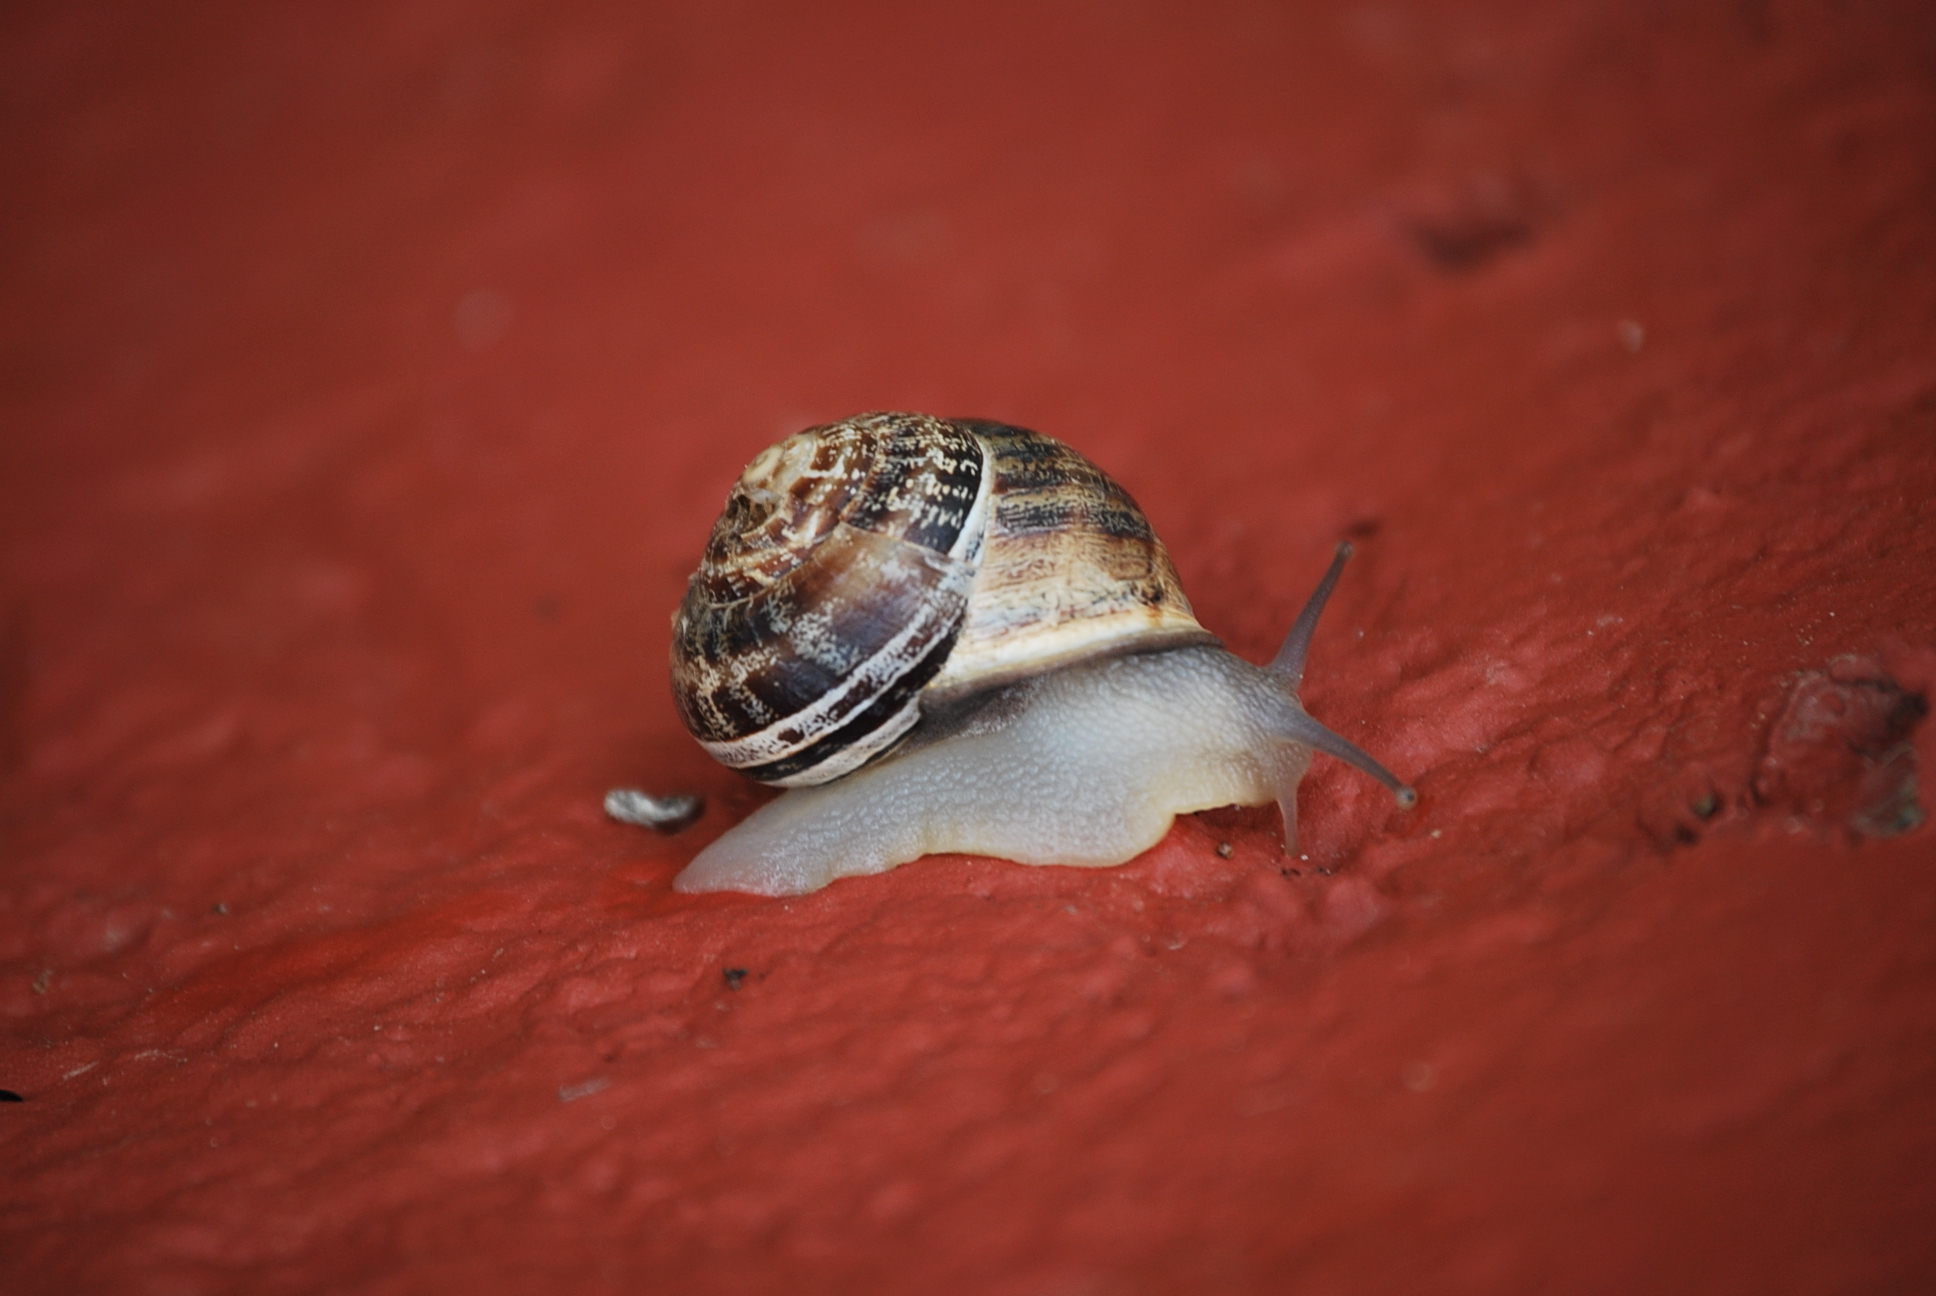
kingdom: Animalia
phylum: Mollusca
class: Gastropoda
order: Stylommatophora
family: Helicidae
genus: Eobania
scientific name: Eobania vermiculata
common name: Chocolateband snail
